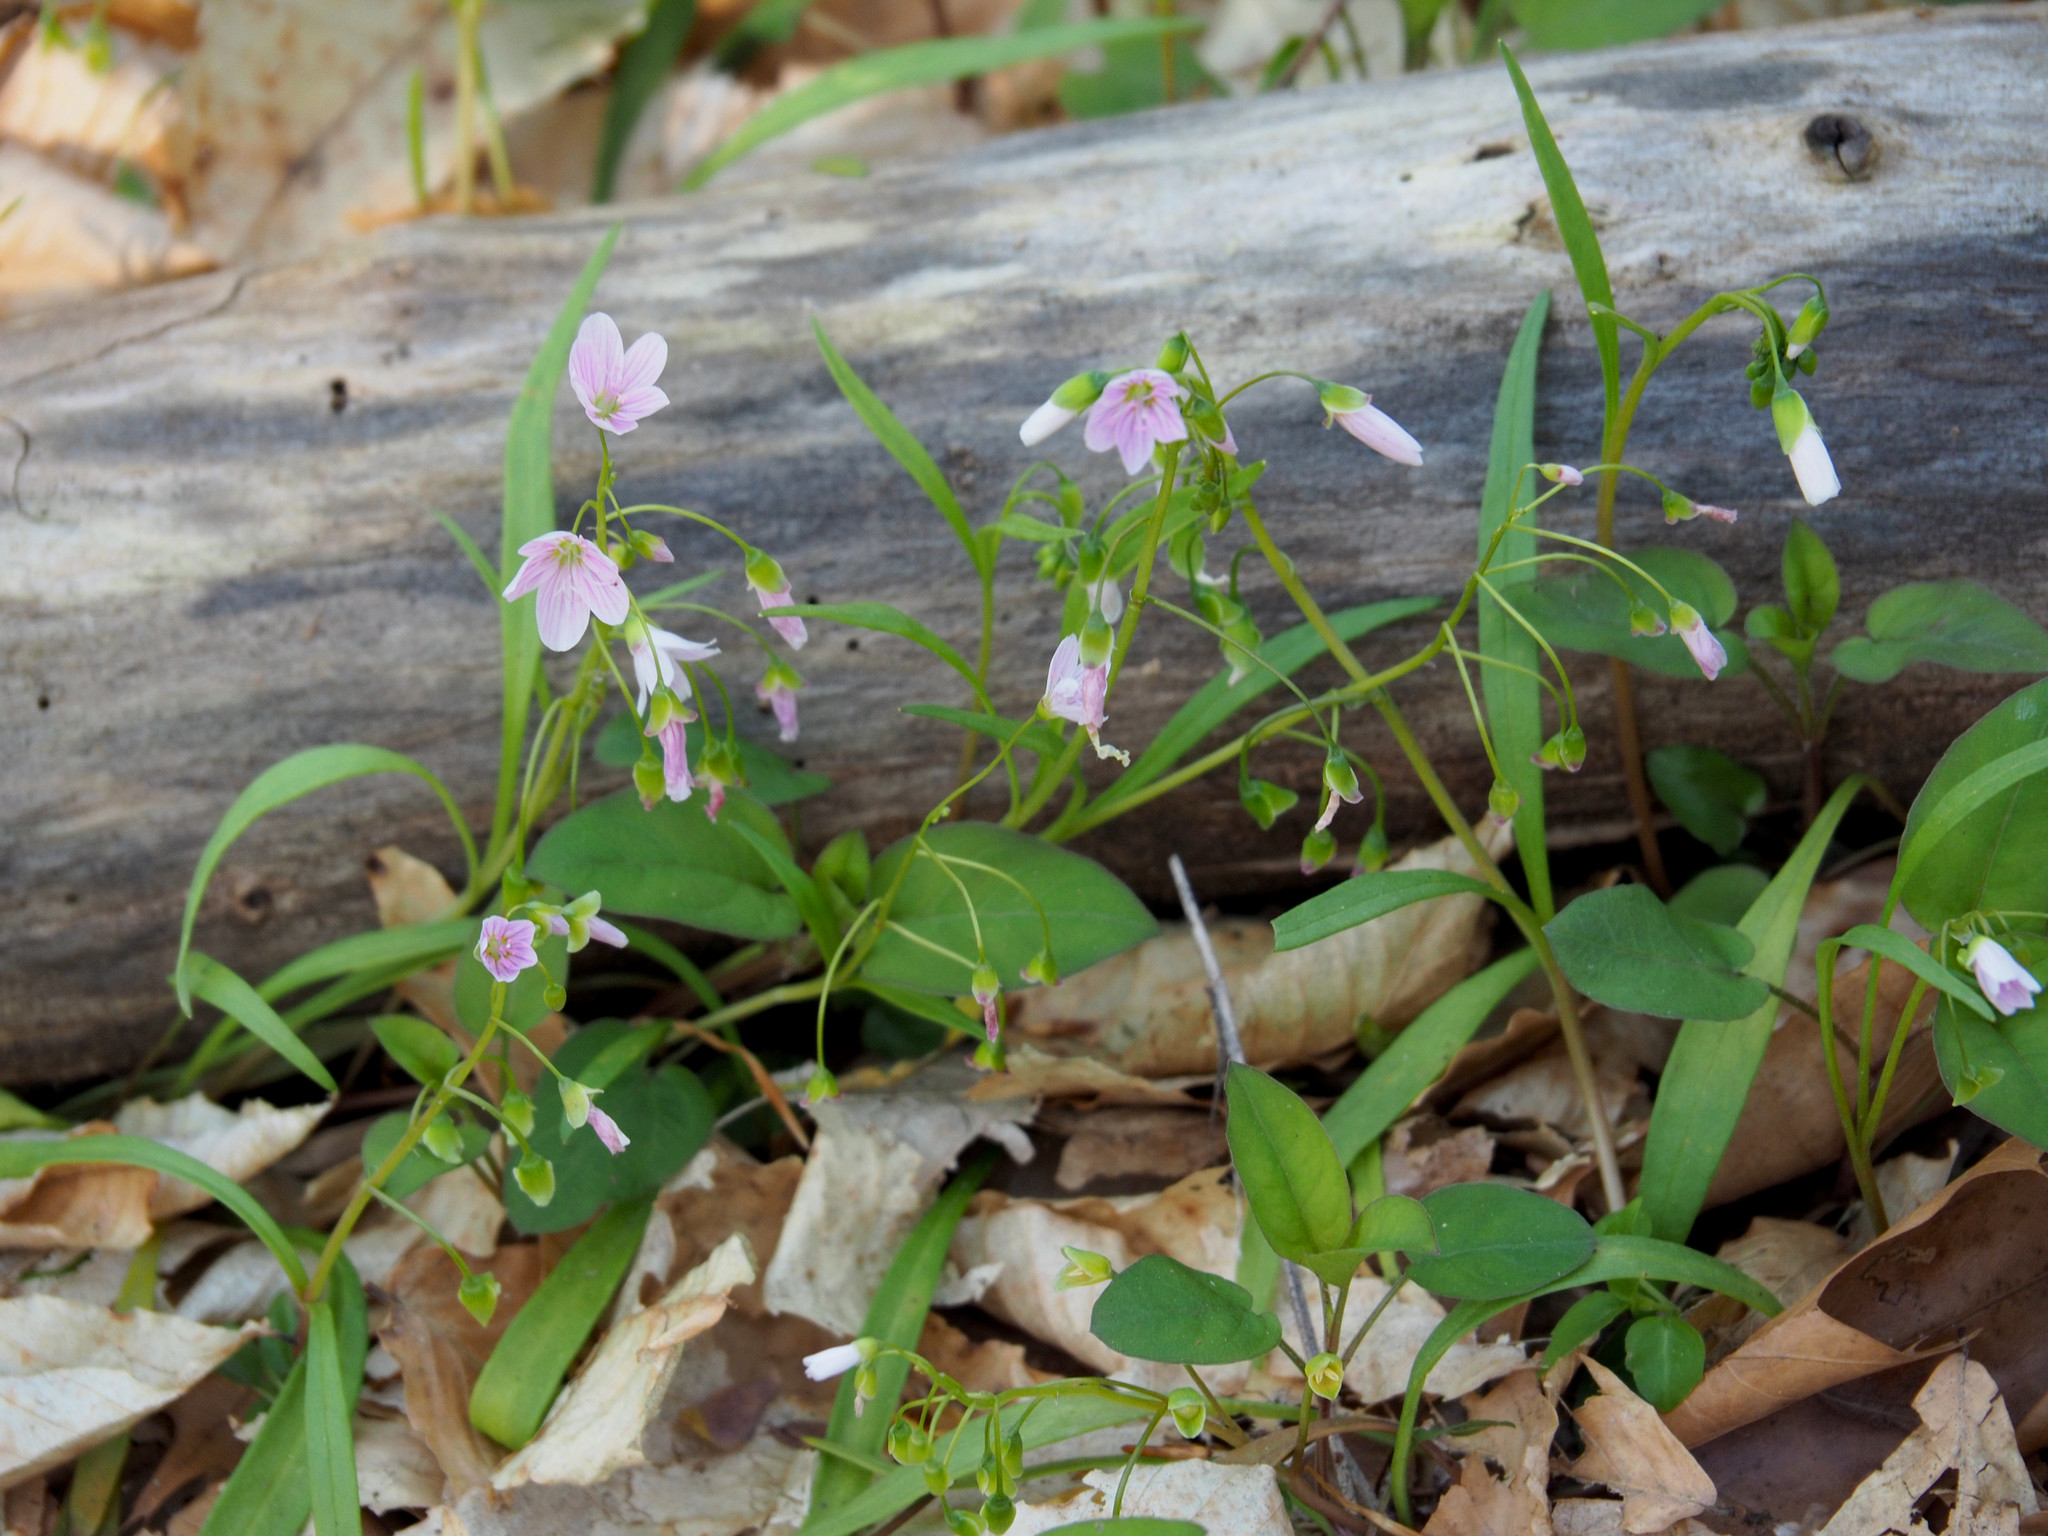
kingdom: Plantae
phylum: Tracheophyta
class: Magnoliopsida
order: Caryophyllales
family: Montiaceae
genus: Claytonia
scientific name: Claytonia virginica
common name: Virginia springbeauty
